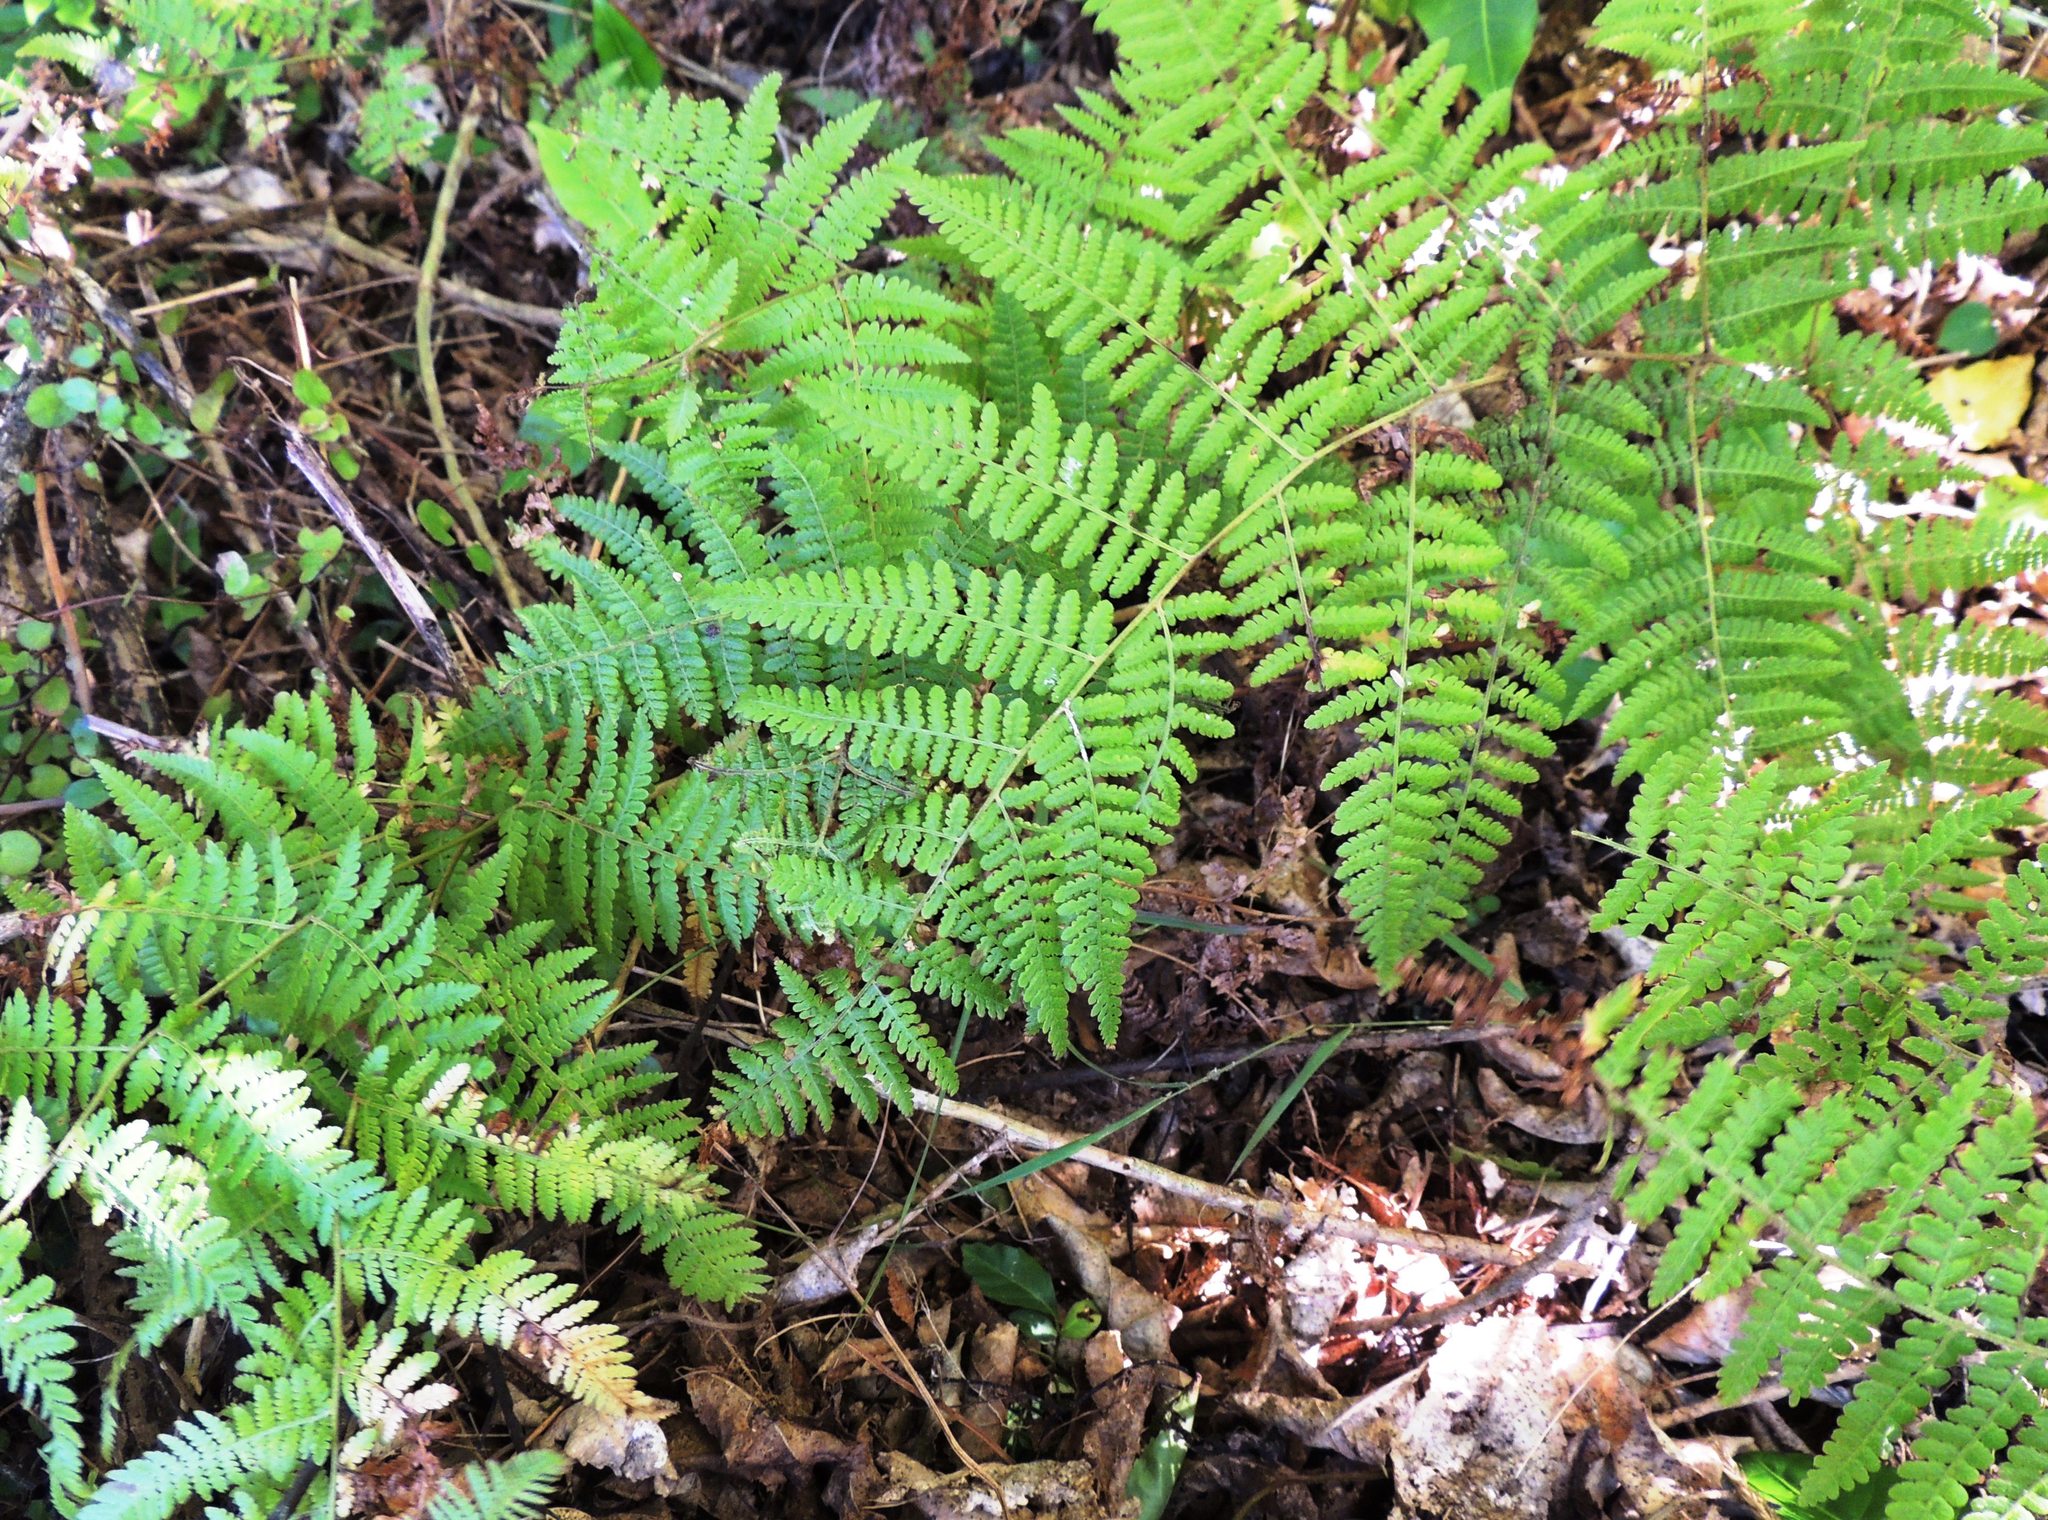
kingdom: Plantae
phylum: Tracheophyta
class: Polypodiopsida
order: Polypodiales
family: Dennstaedtiaceae
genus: Hypolepis
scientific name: Hypolepis ambigua
